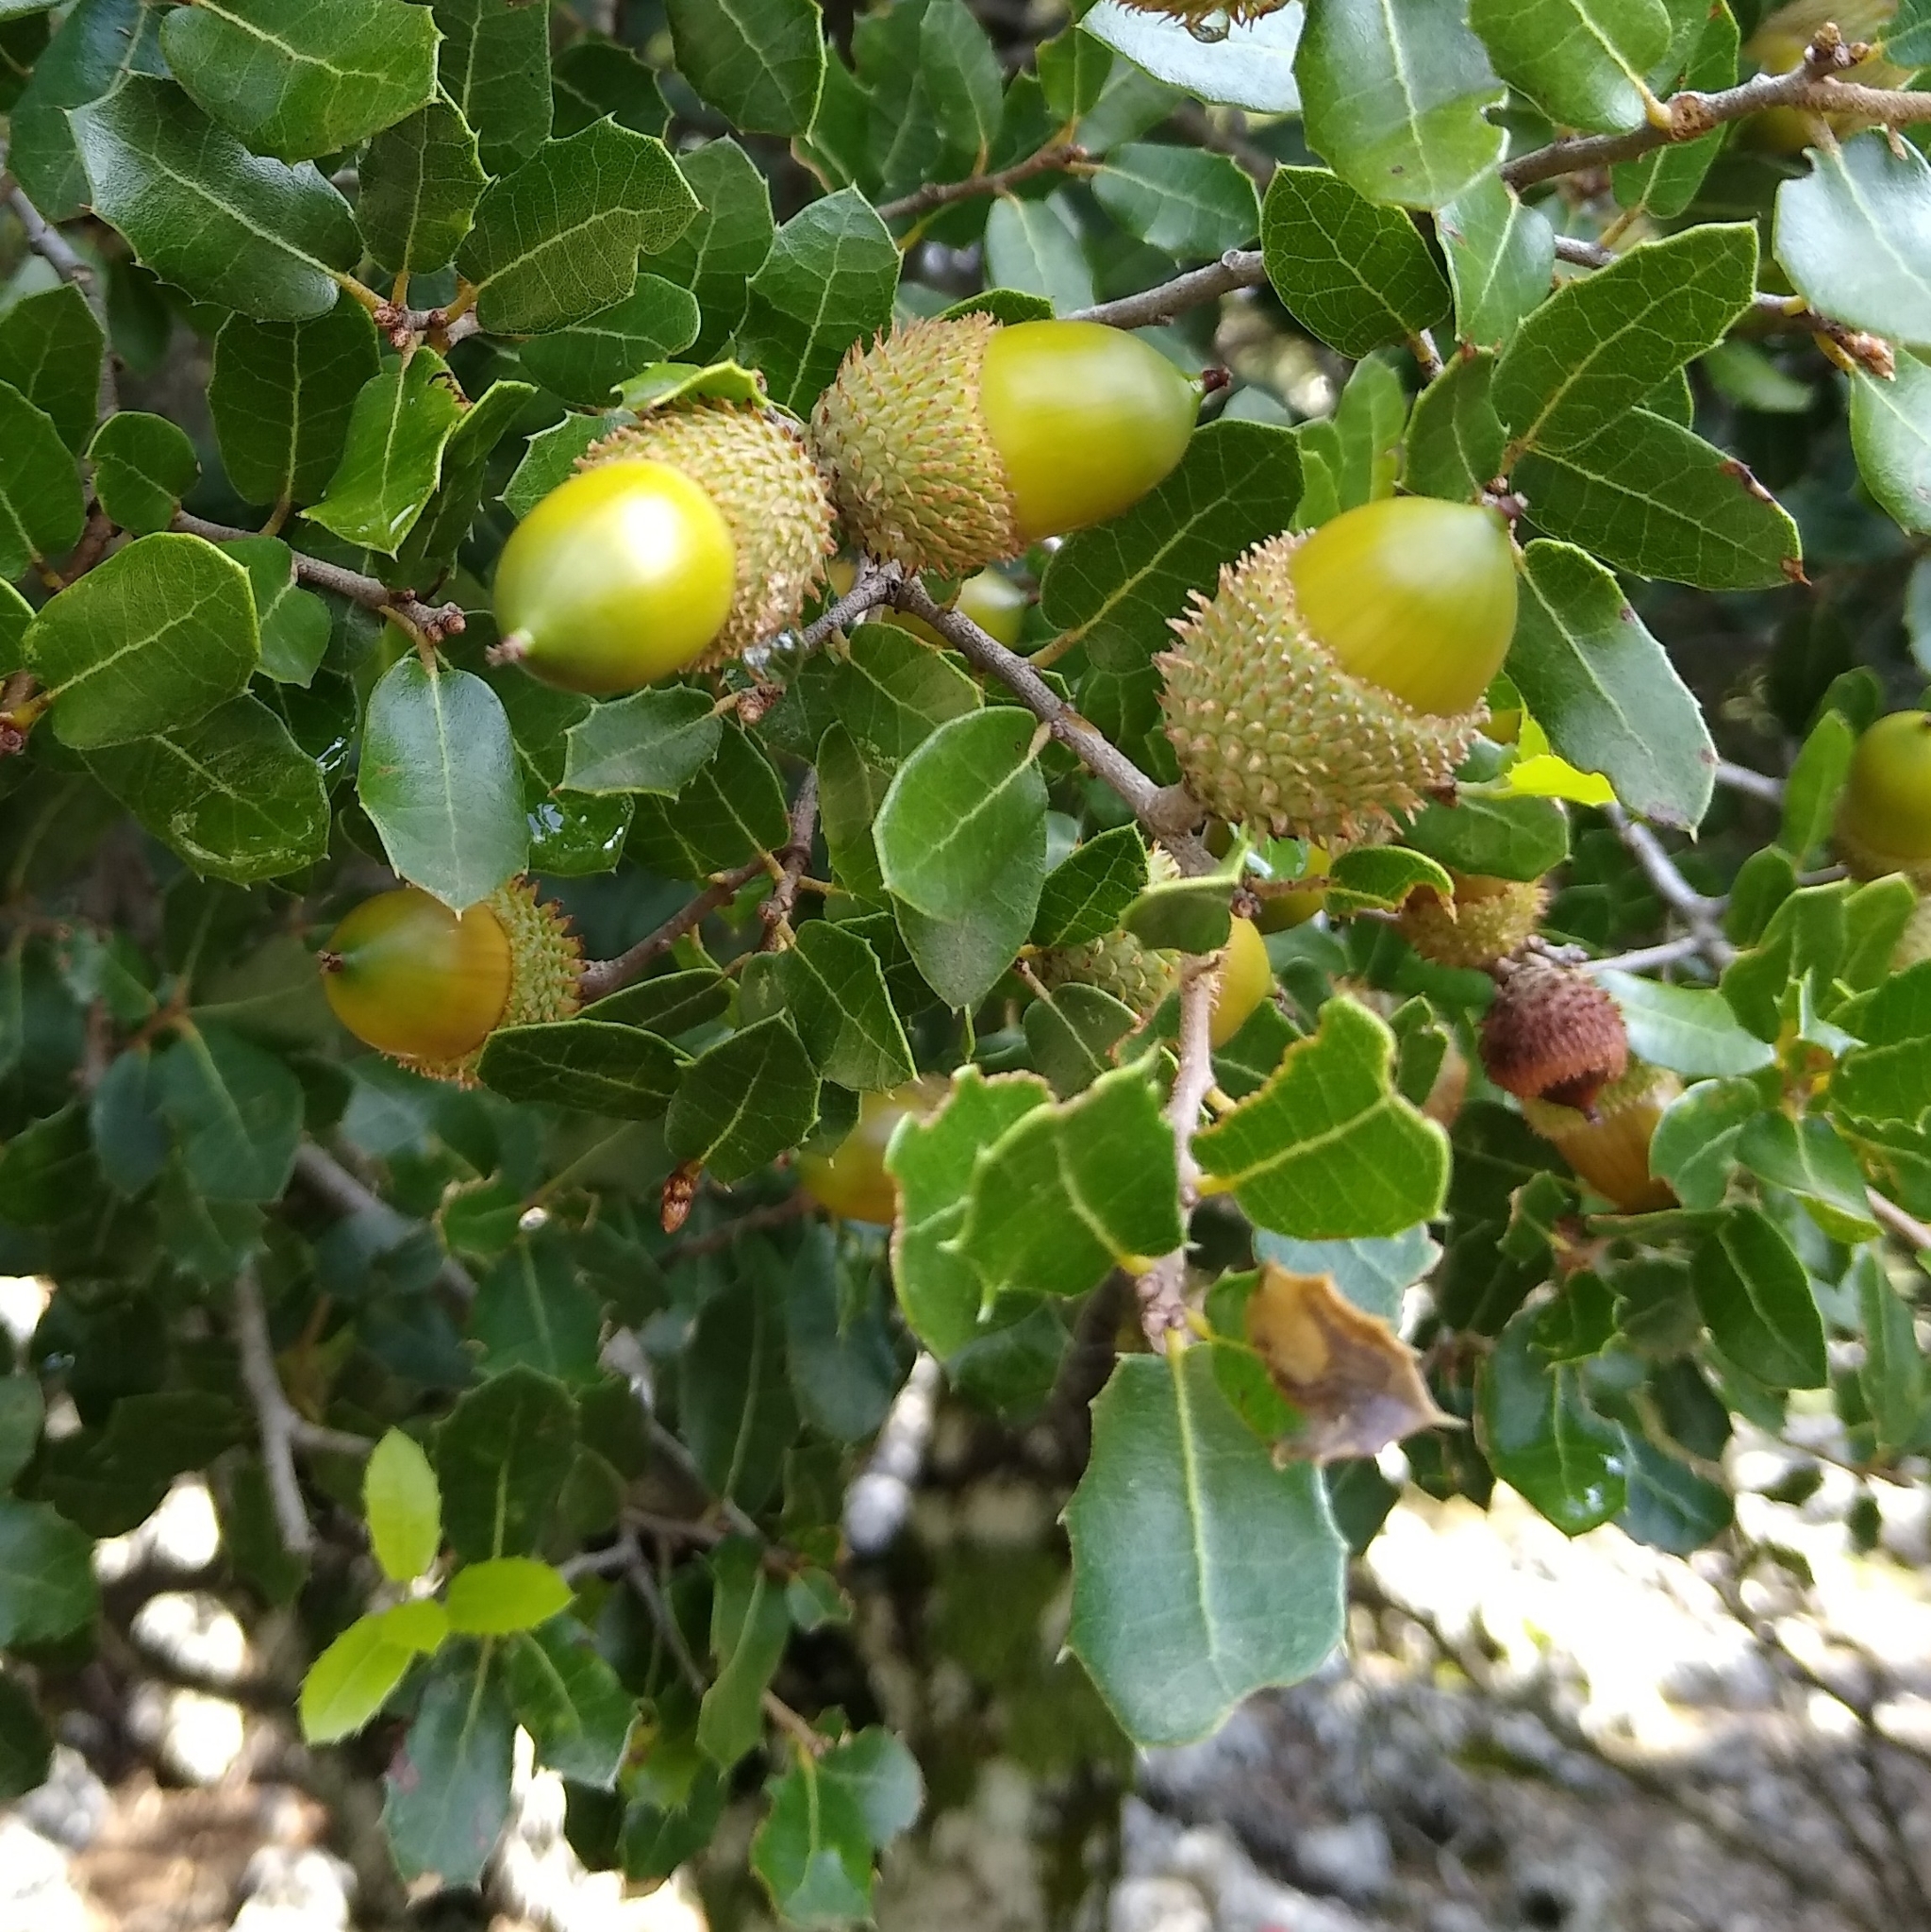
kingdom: Plantae
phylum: Tracheophyta
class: Magnoliopsida
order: Fagales
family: Fagaceae
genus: Quercus
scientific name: Quercus coccifera
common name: Kermes oak
